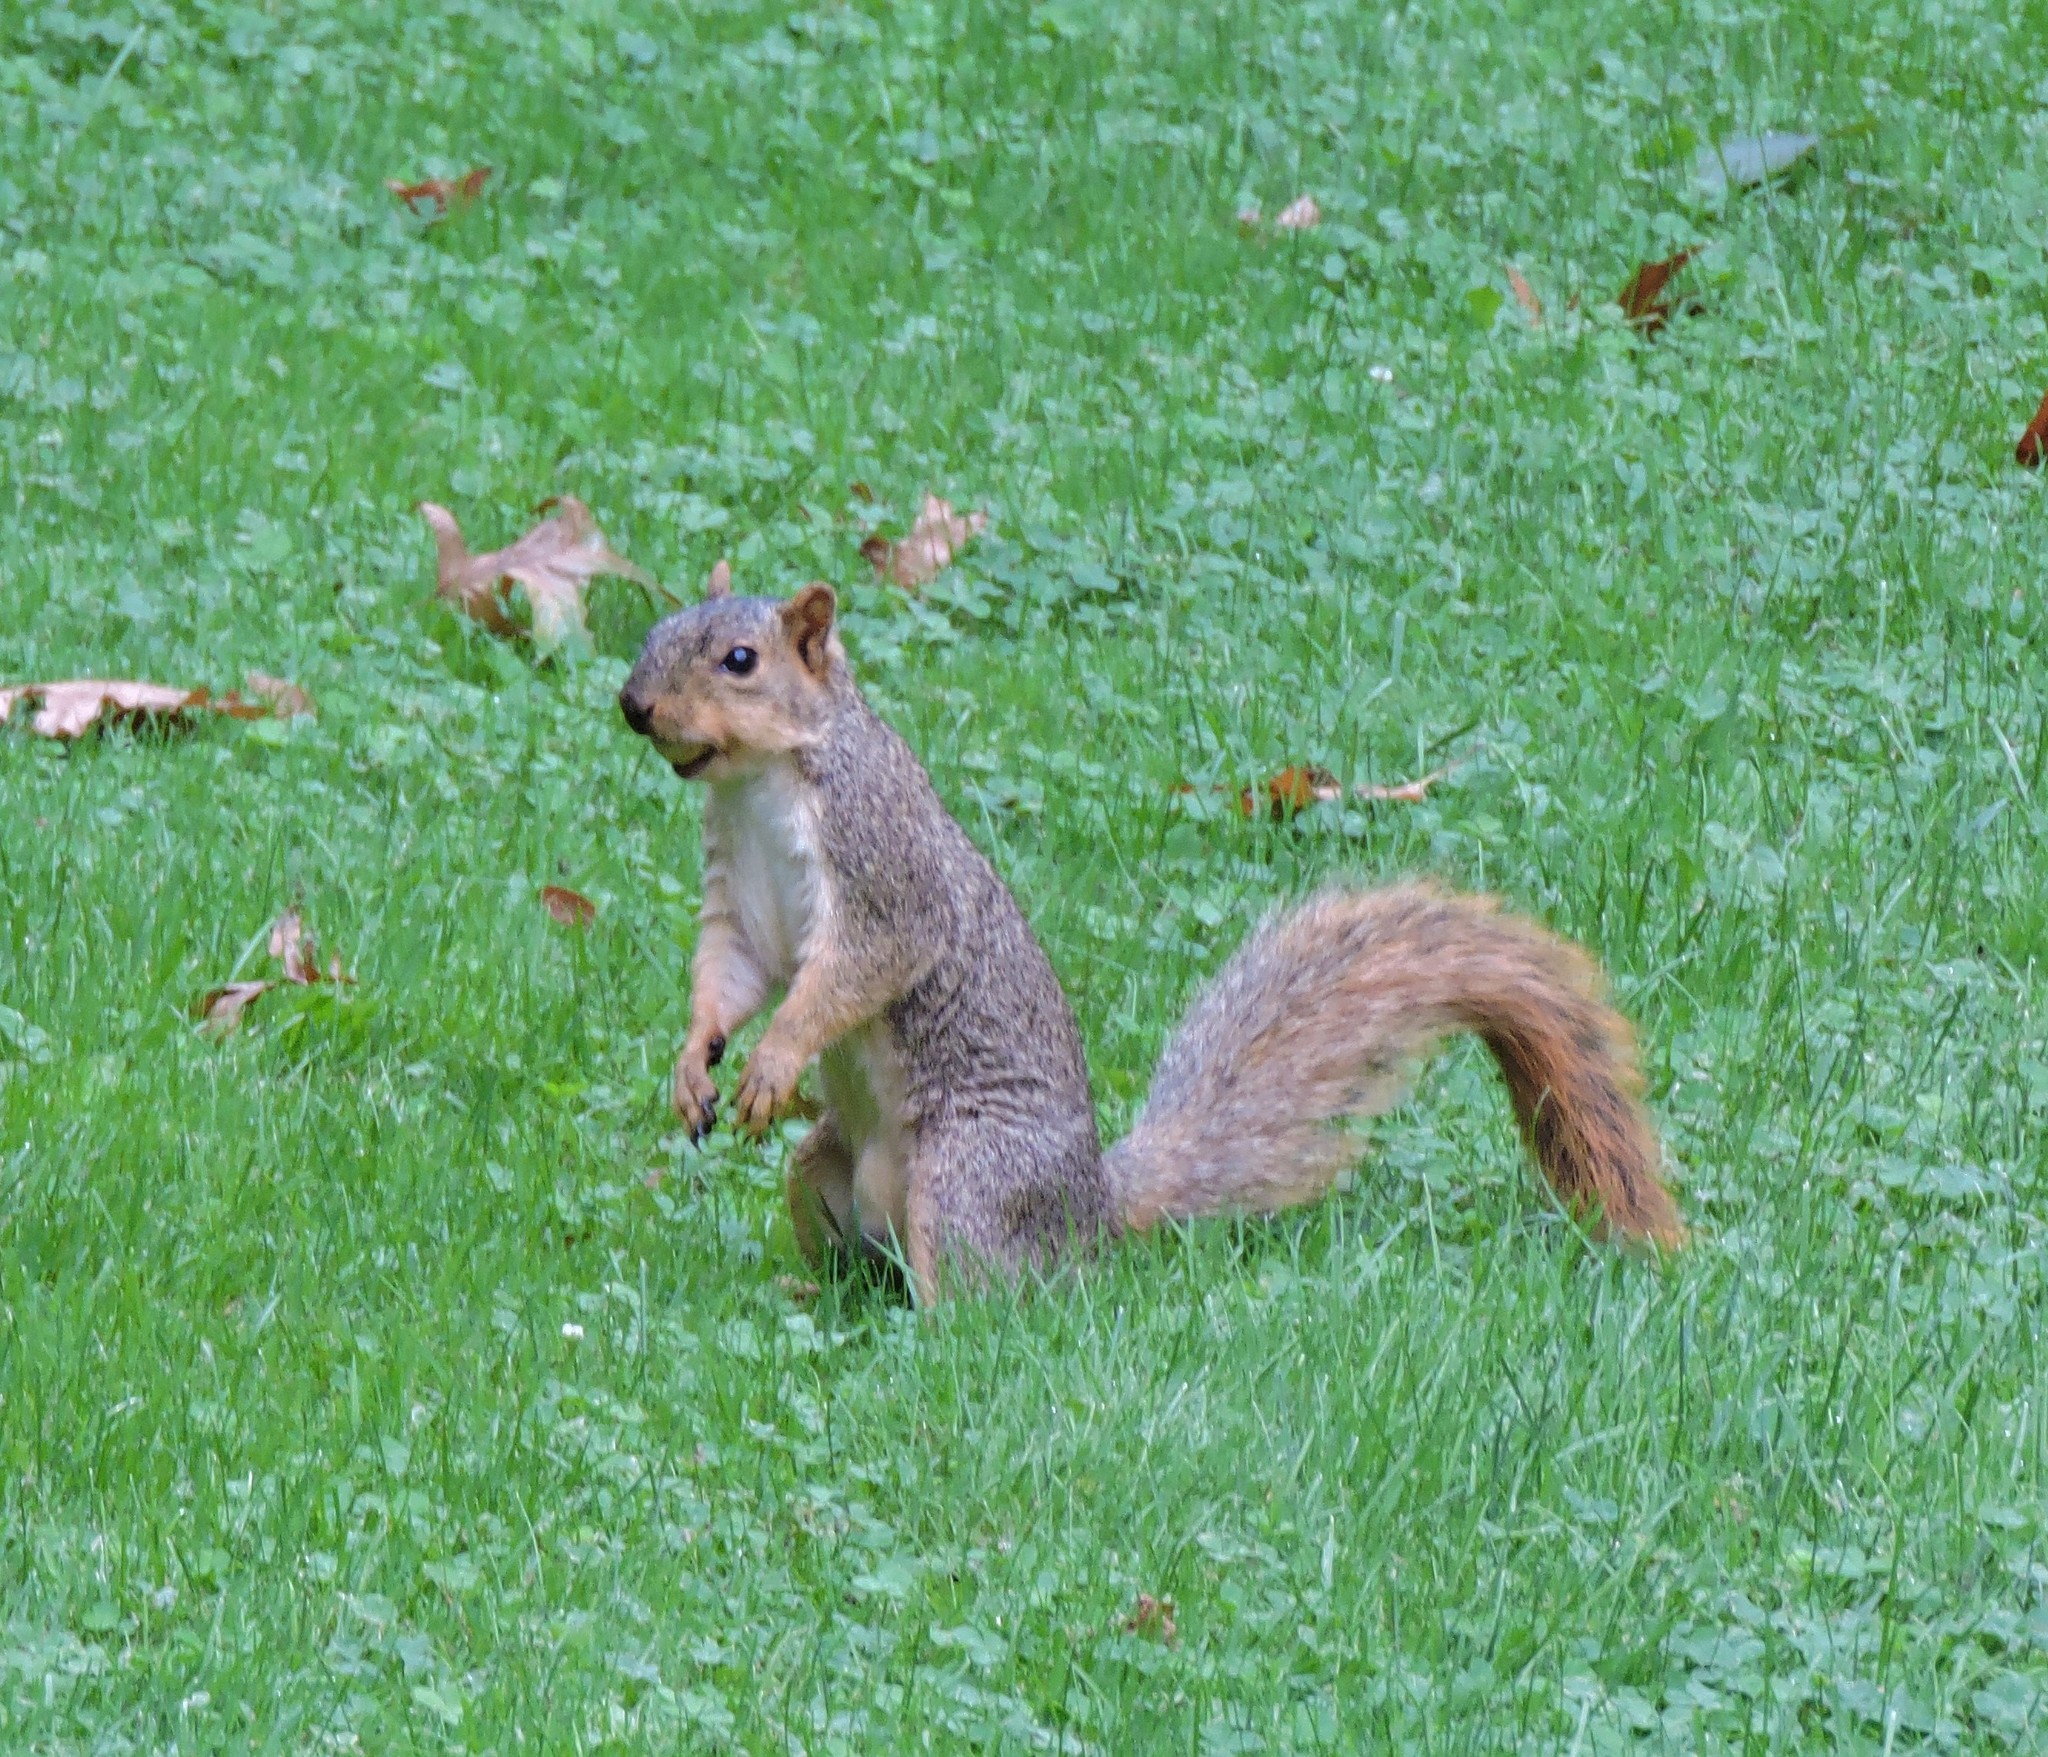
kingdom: Animalia
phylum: Chordata
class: Mammalia
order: Rodentia
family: Sciuridae
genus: Sciurus
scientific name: Sciurus niger
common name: Fox squirrel
